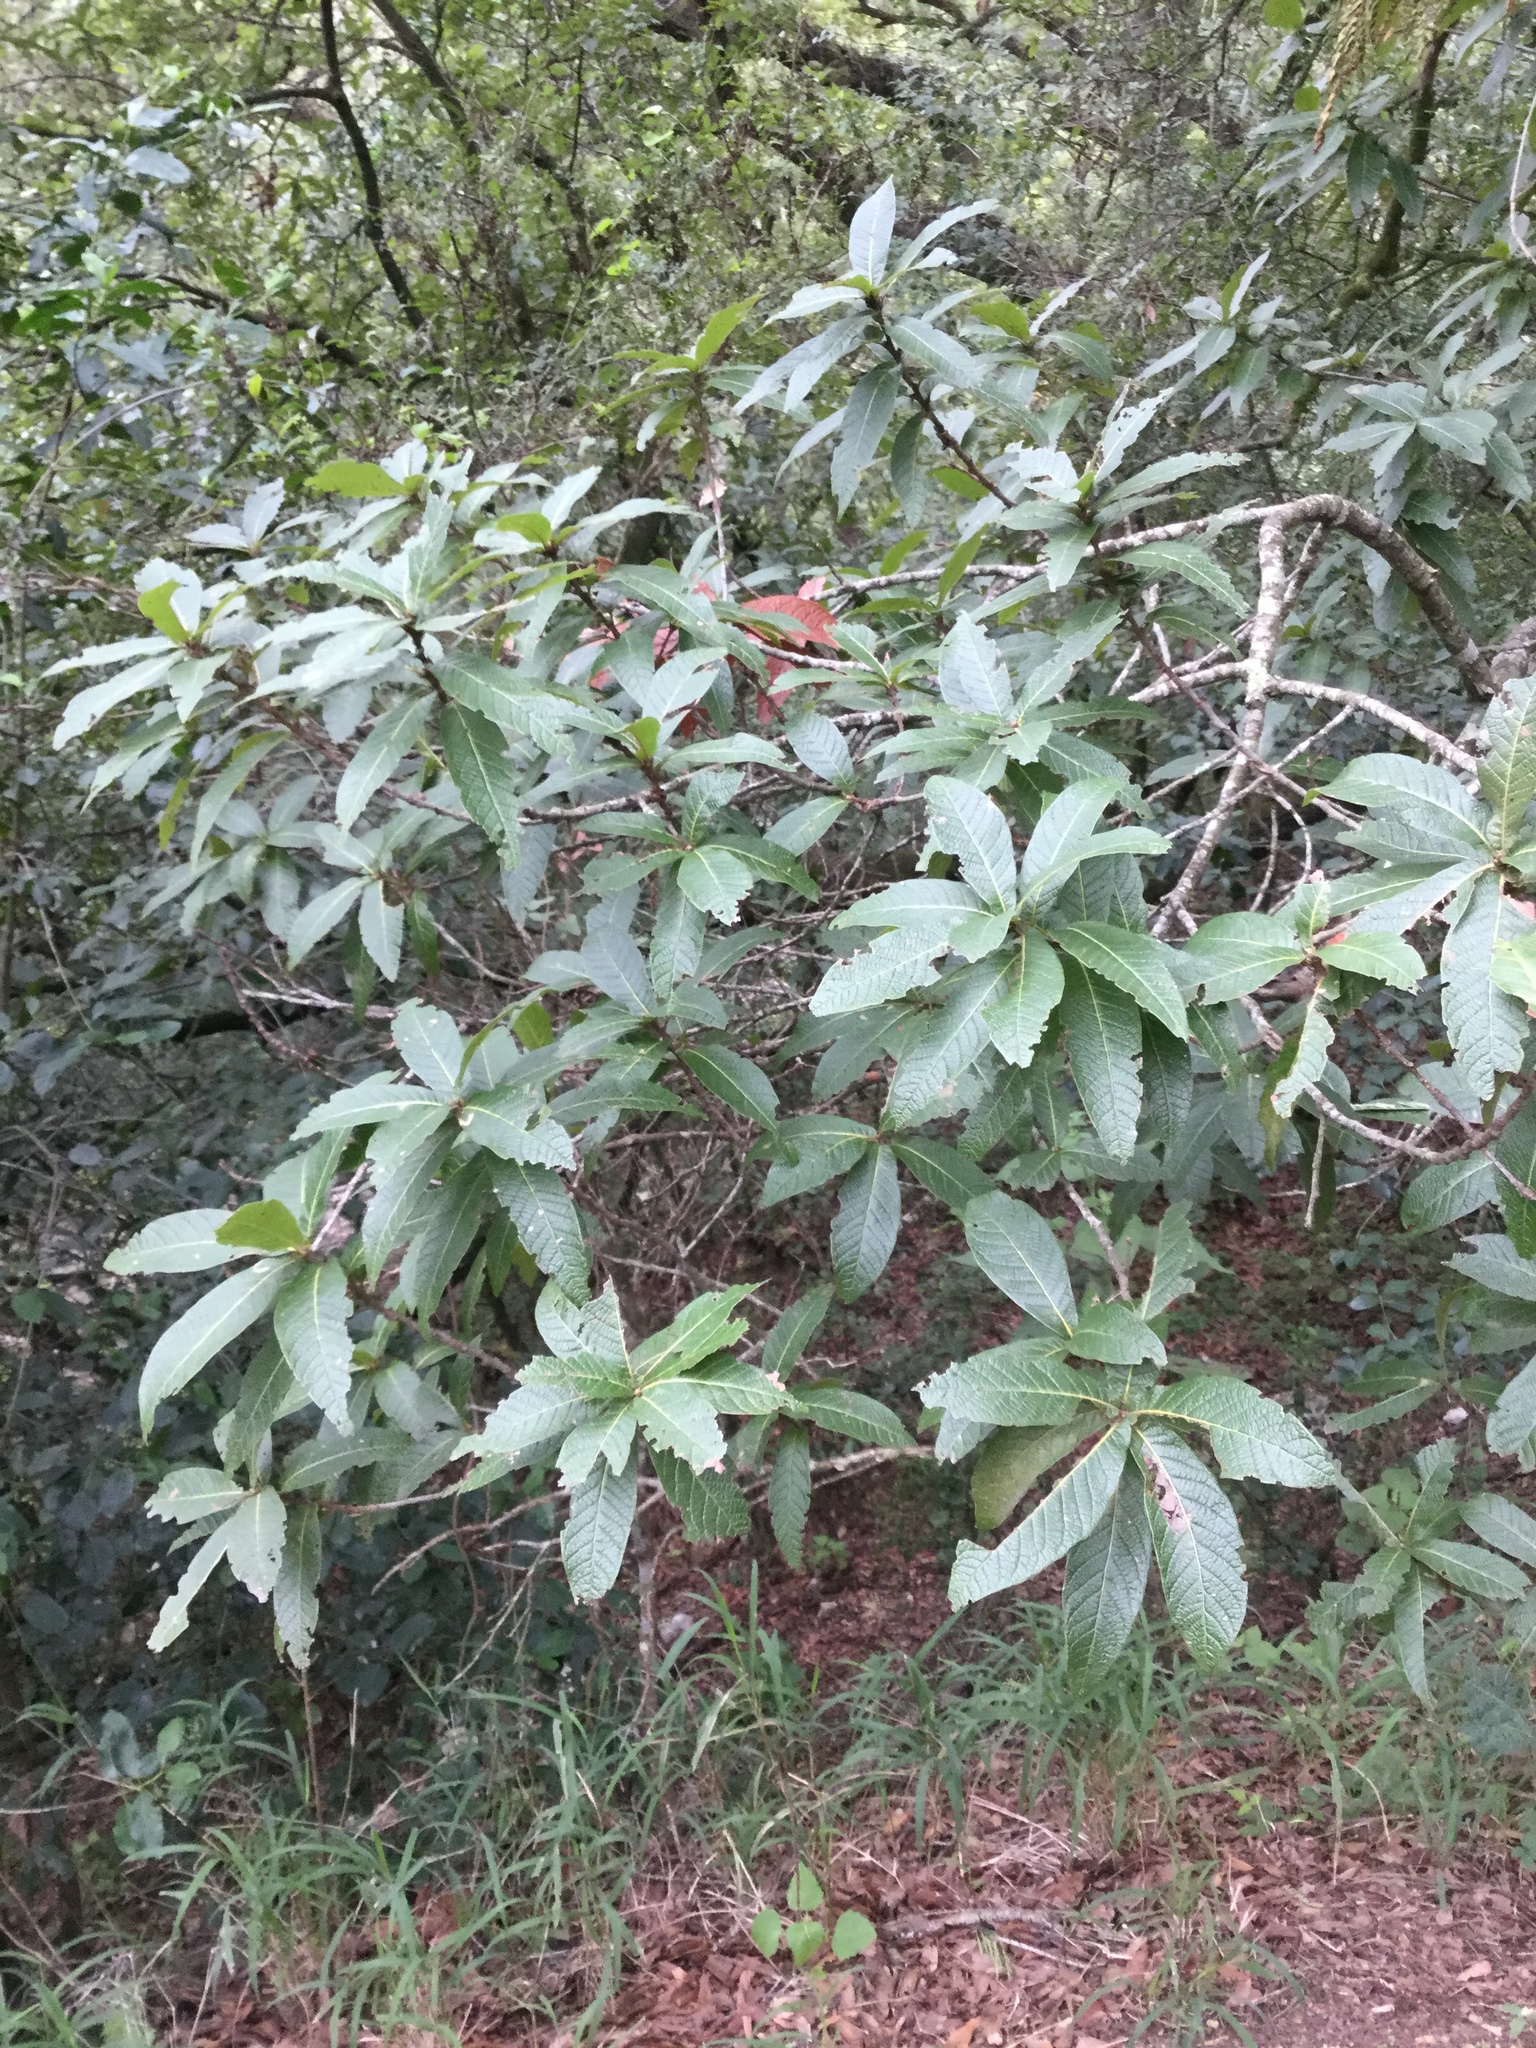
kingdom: Plantae
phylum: Tracheophyta
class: Magnoliopsida
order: Fagales
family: Fagaceae
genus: Quercus
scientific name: Quercus rysophylla
